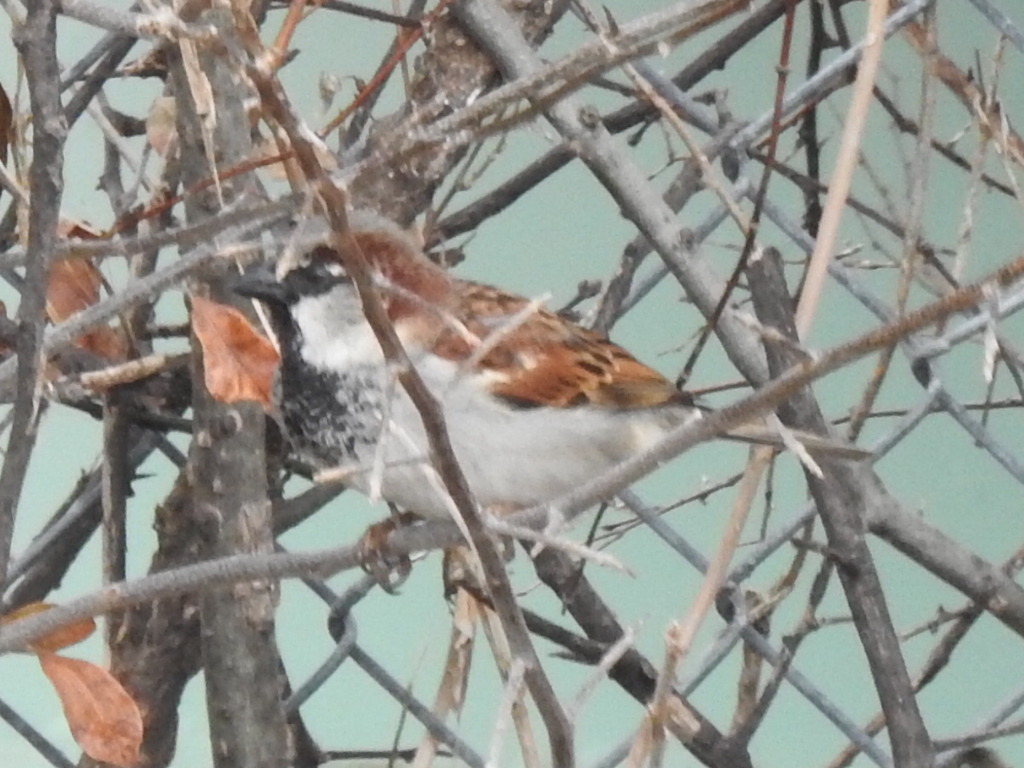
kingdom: Animalia
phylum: Chordata
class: Aves
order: Passeriformes
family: Passeridae
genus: Passer
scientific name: Passer domesticus
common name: House sparrow
